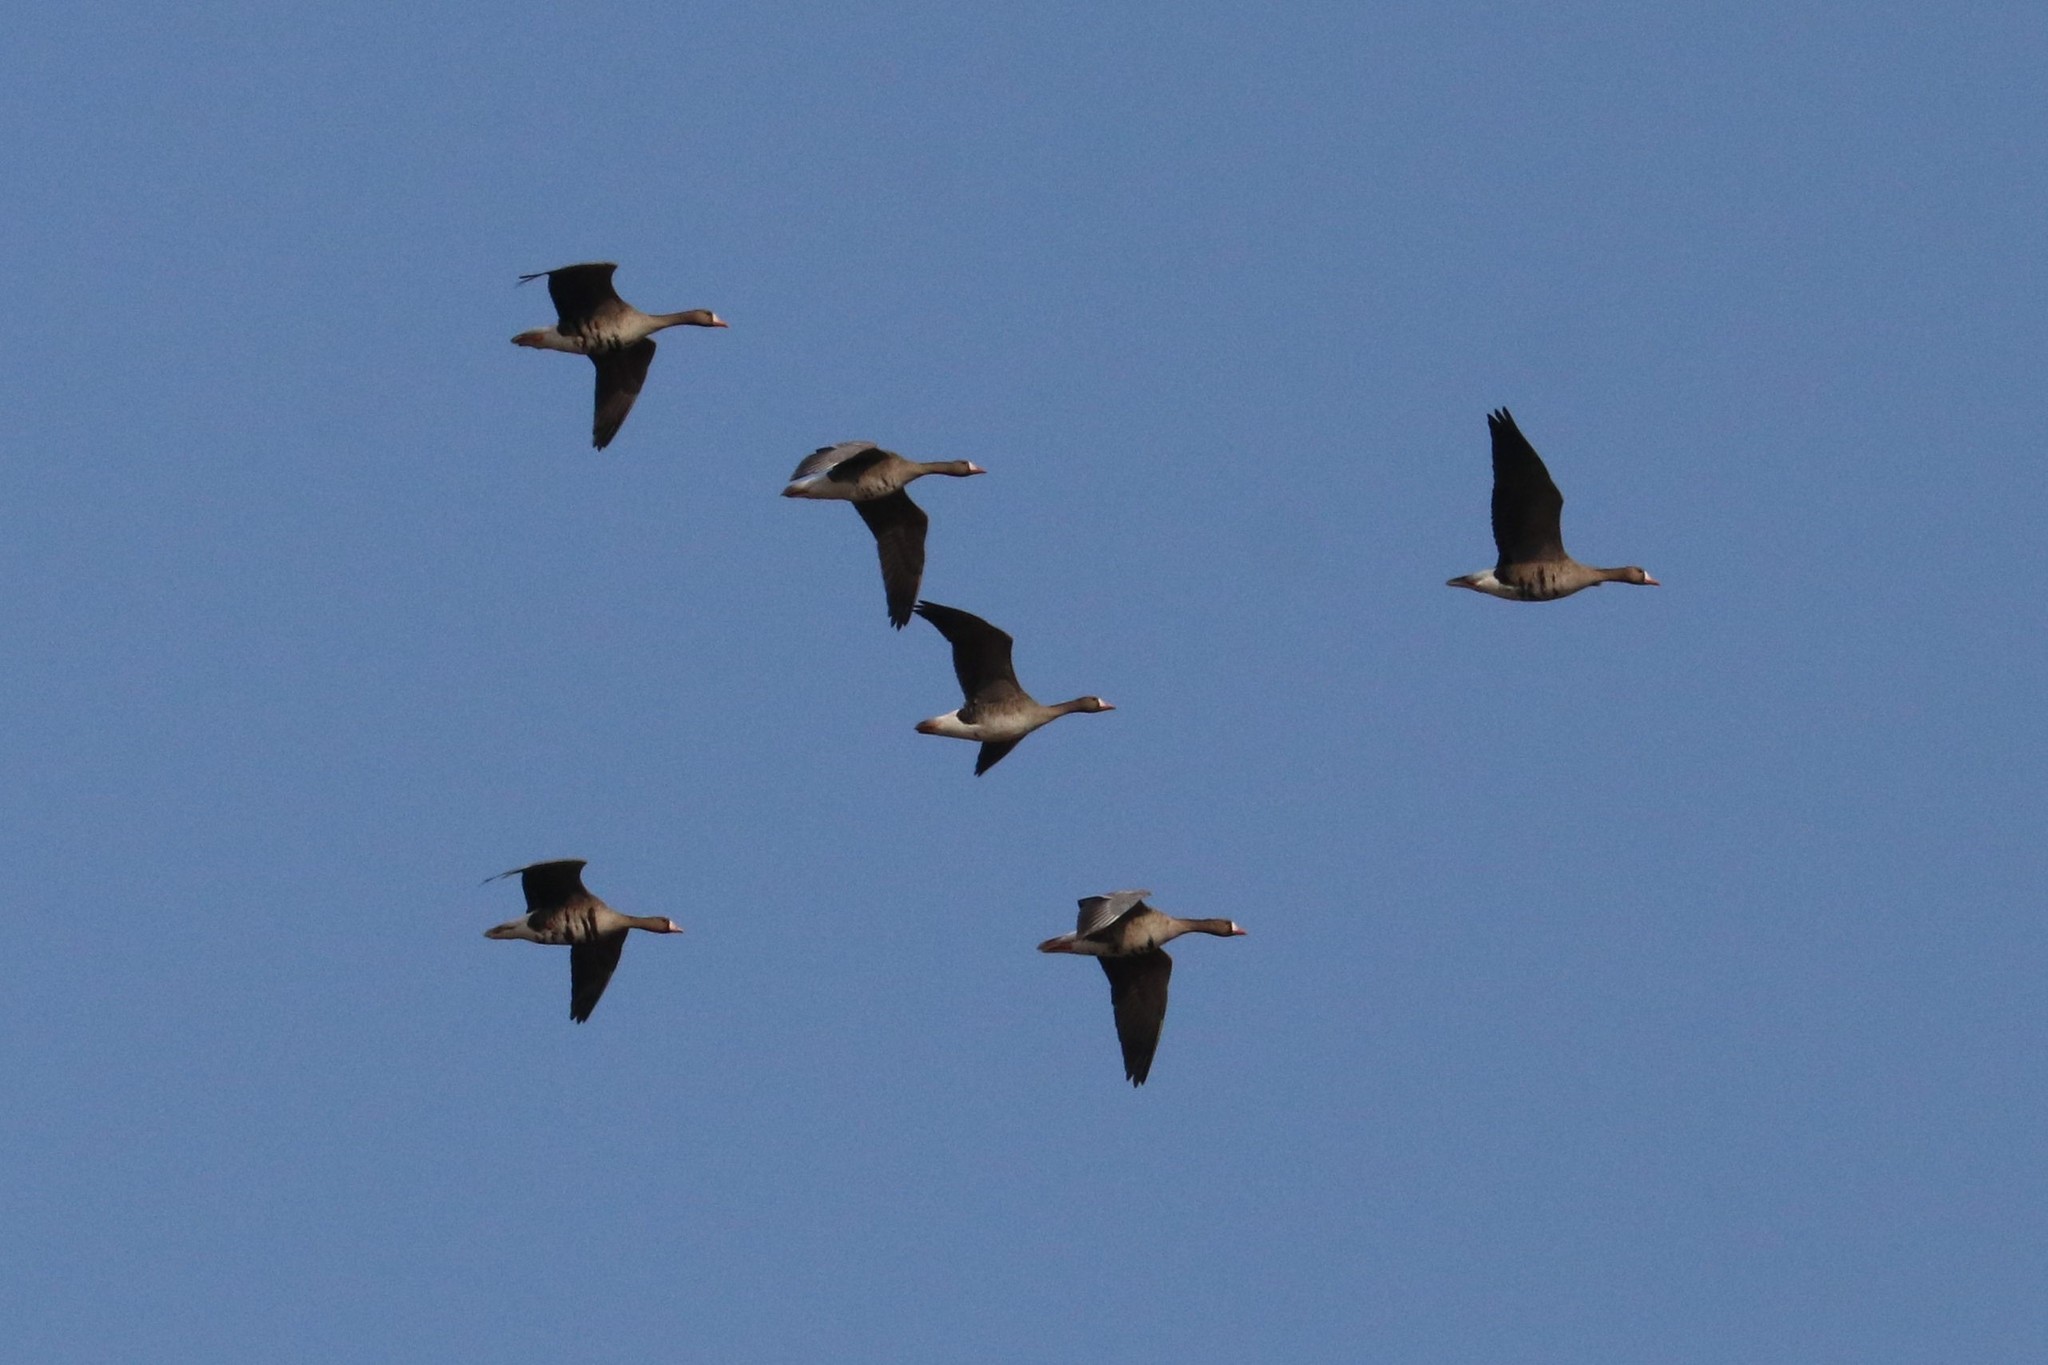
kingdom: Animalia
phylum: Chordata
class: Aves
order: Anseriformes
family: Anatidae
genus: Anser
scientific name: Anser albifrons
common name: Greater white-fronted goose
